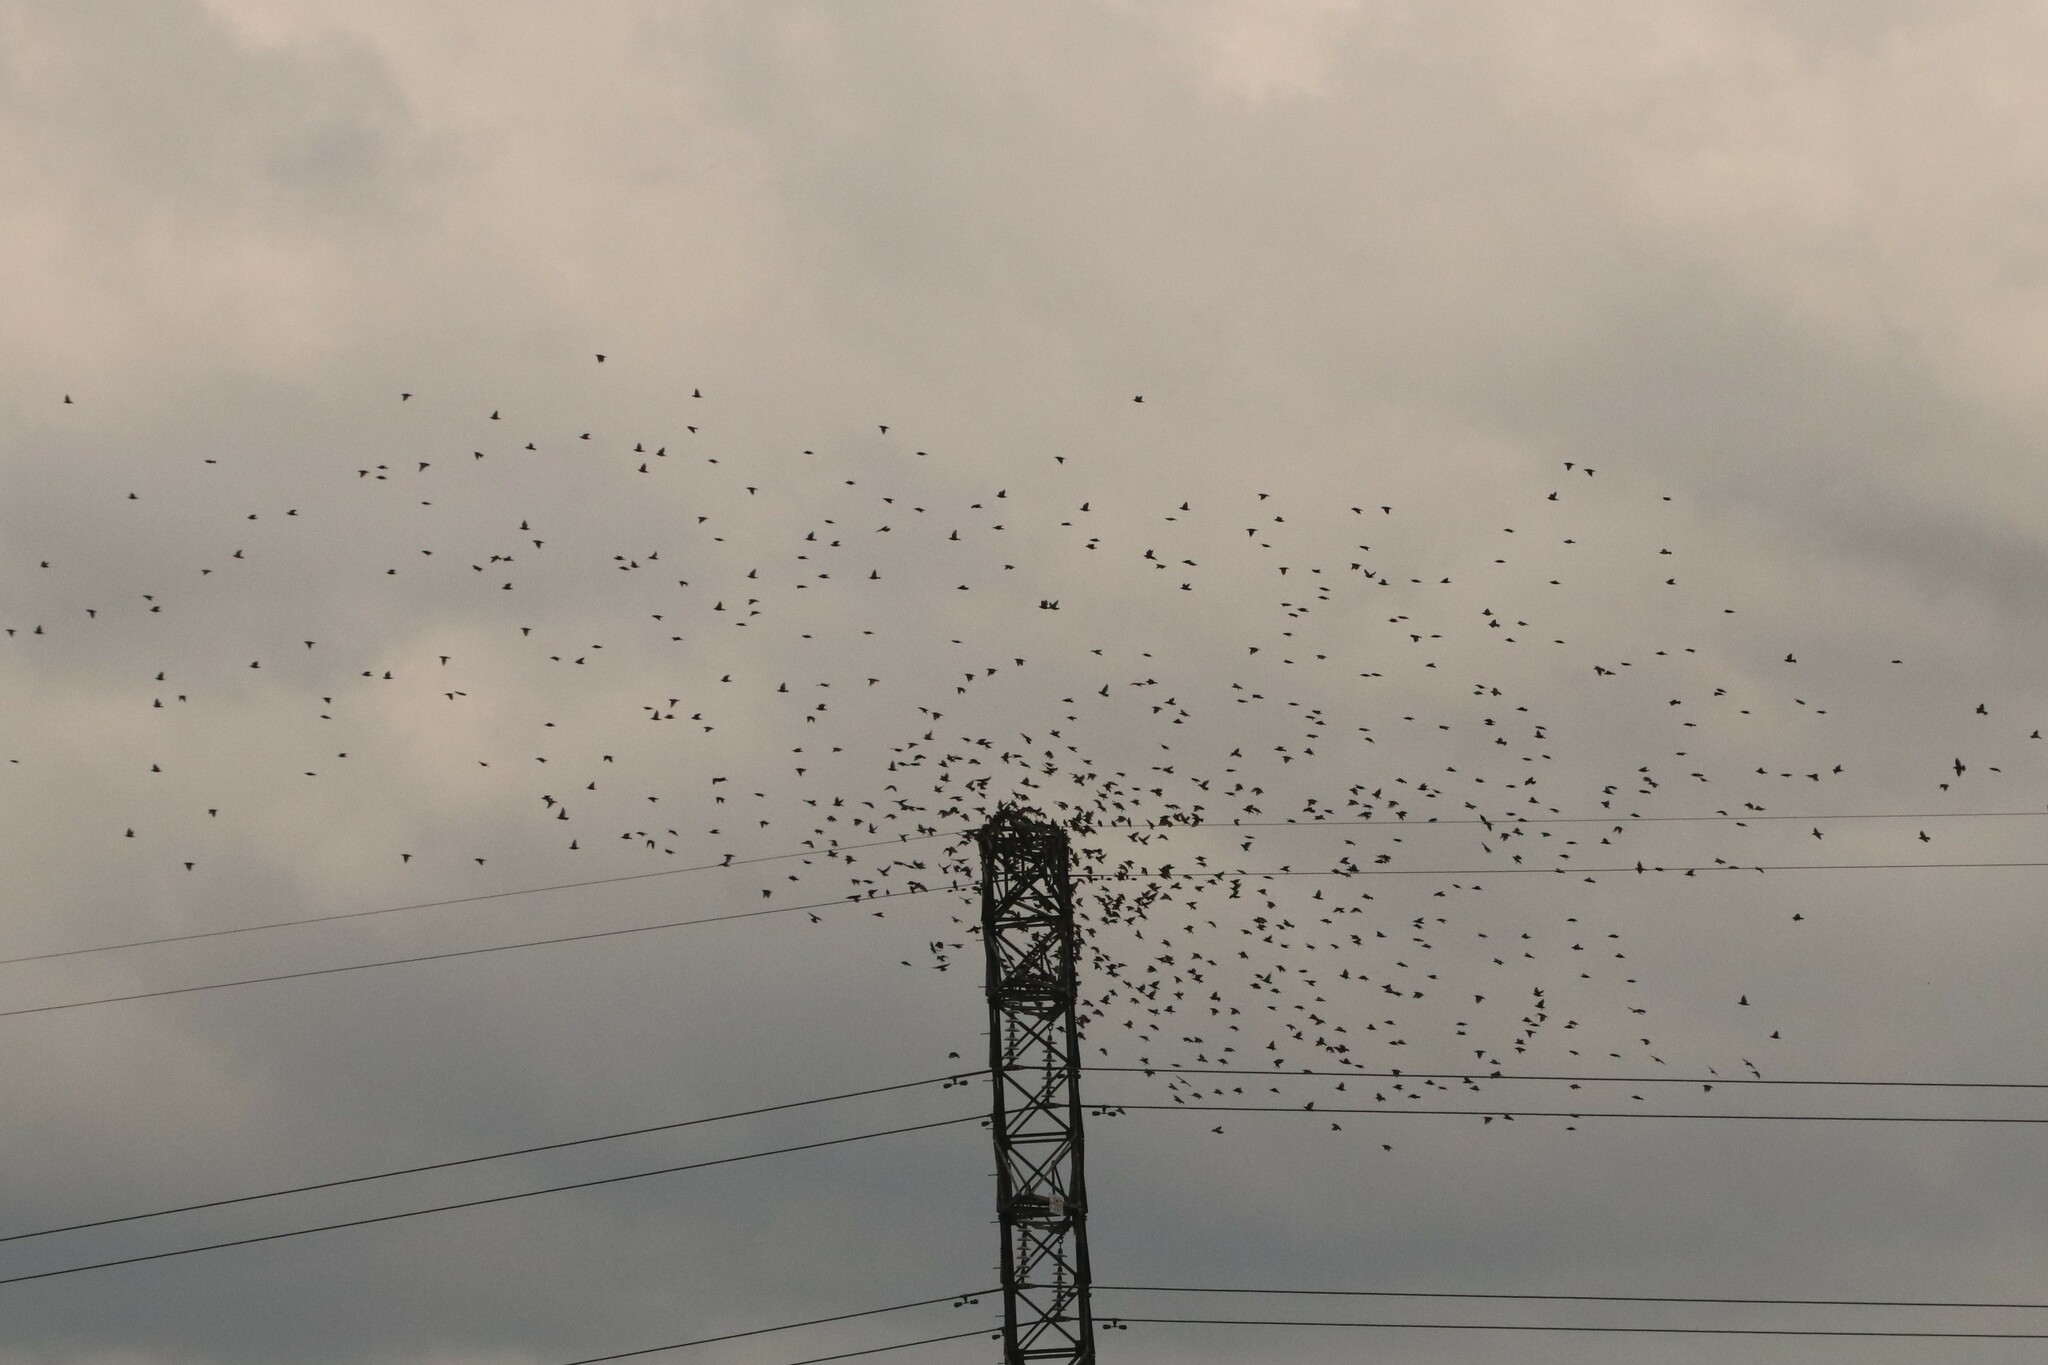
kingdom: Animalia
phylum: Chordata
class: Aves
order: Passeriformes
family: Sturnidae
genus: Sturnus
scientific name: Sturnus vulgaris
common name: Common starling
